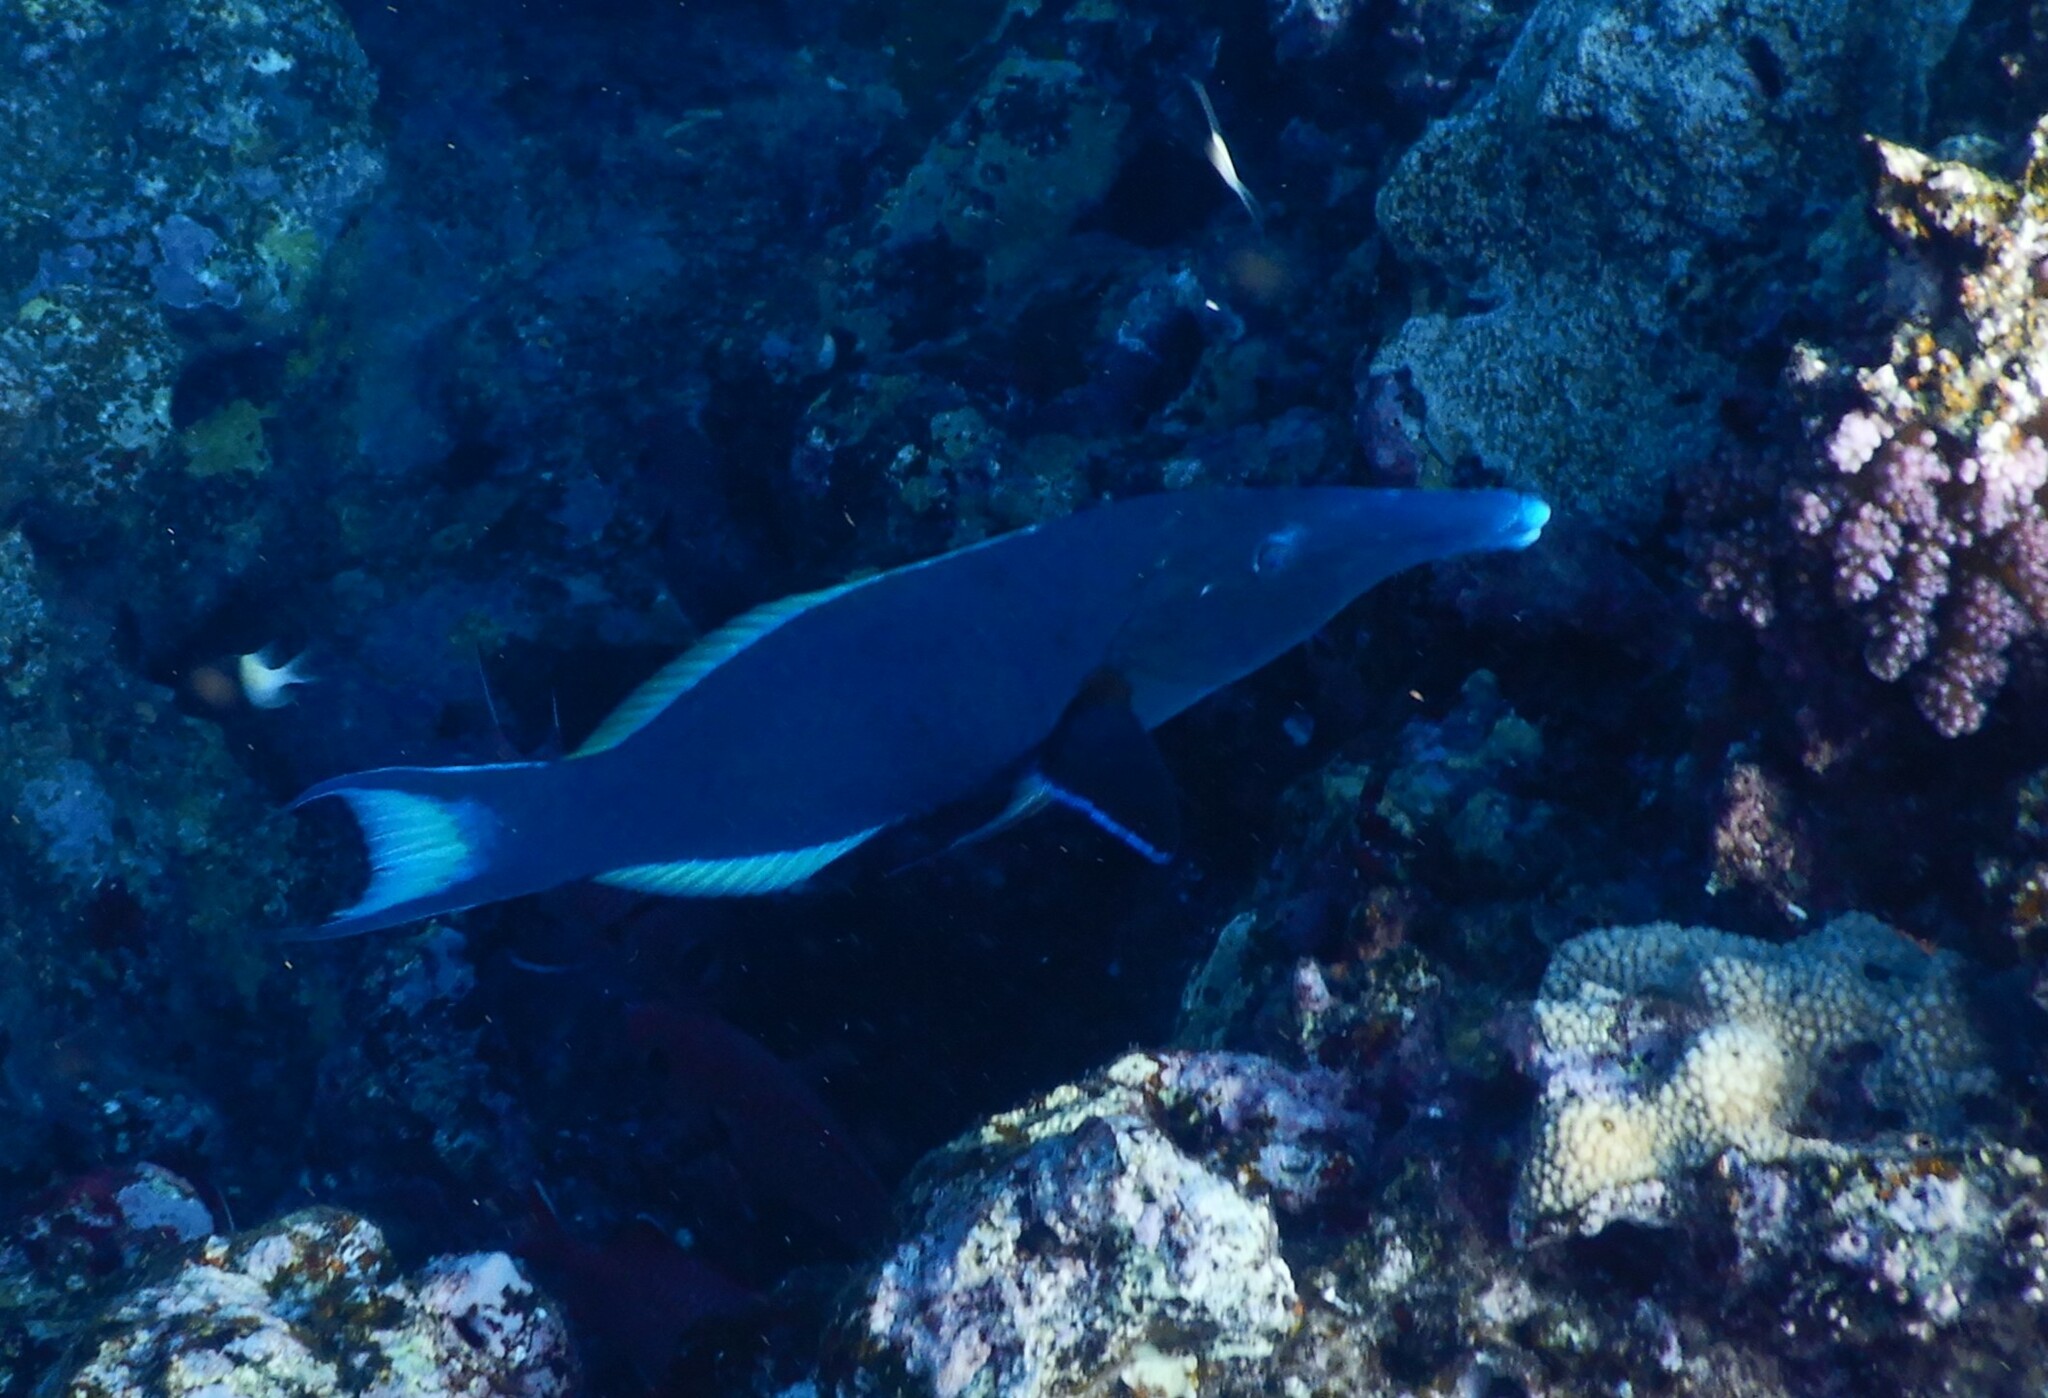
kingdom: Animalia
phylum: Chordata
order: Perciformes
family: Labridae
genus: Gomphosus
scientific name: Gomphosus klunzingeri
